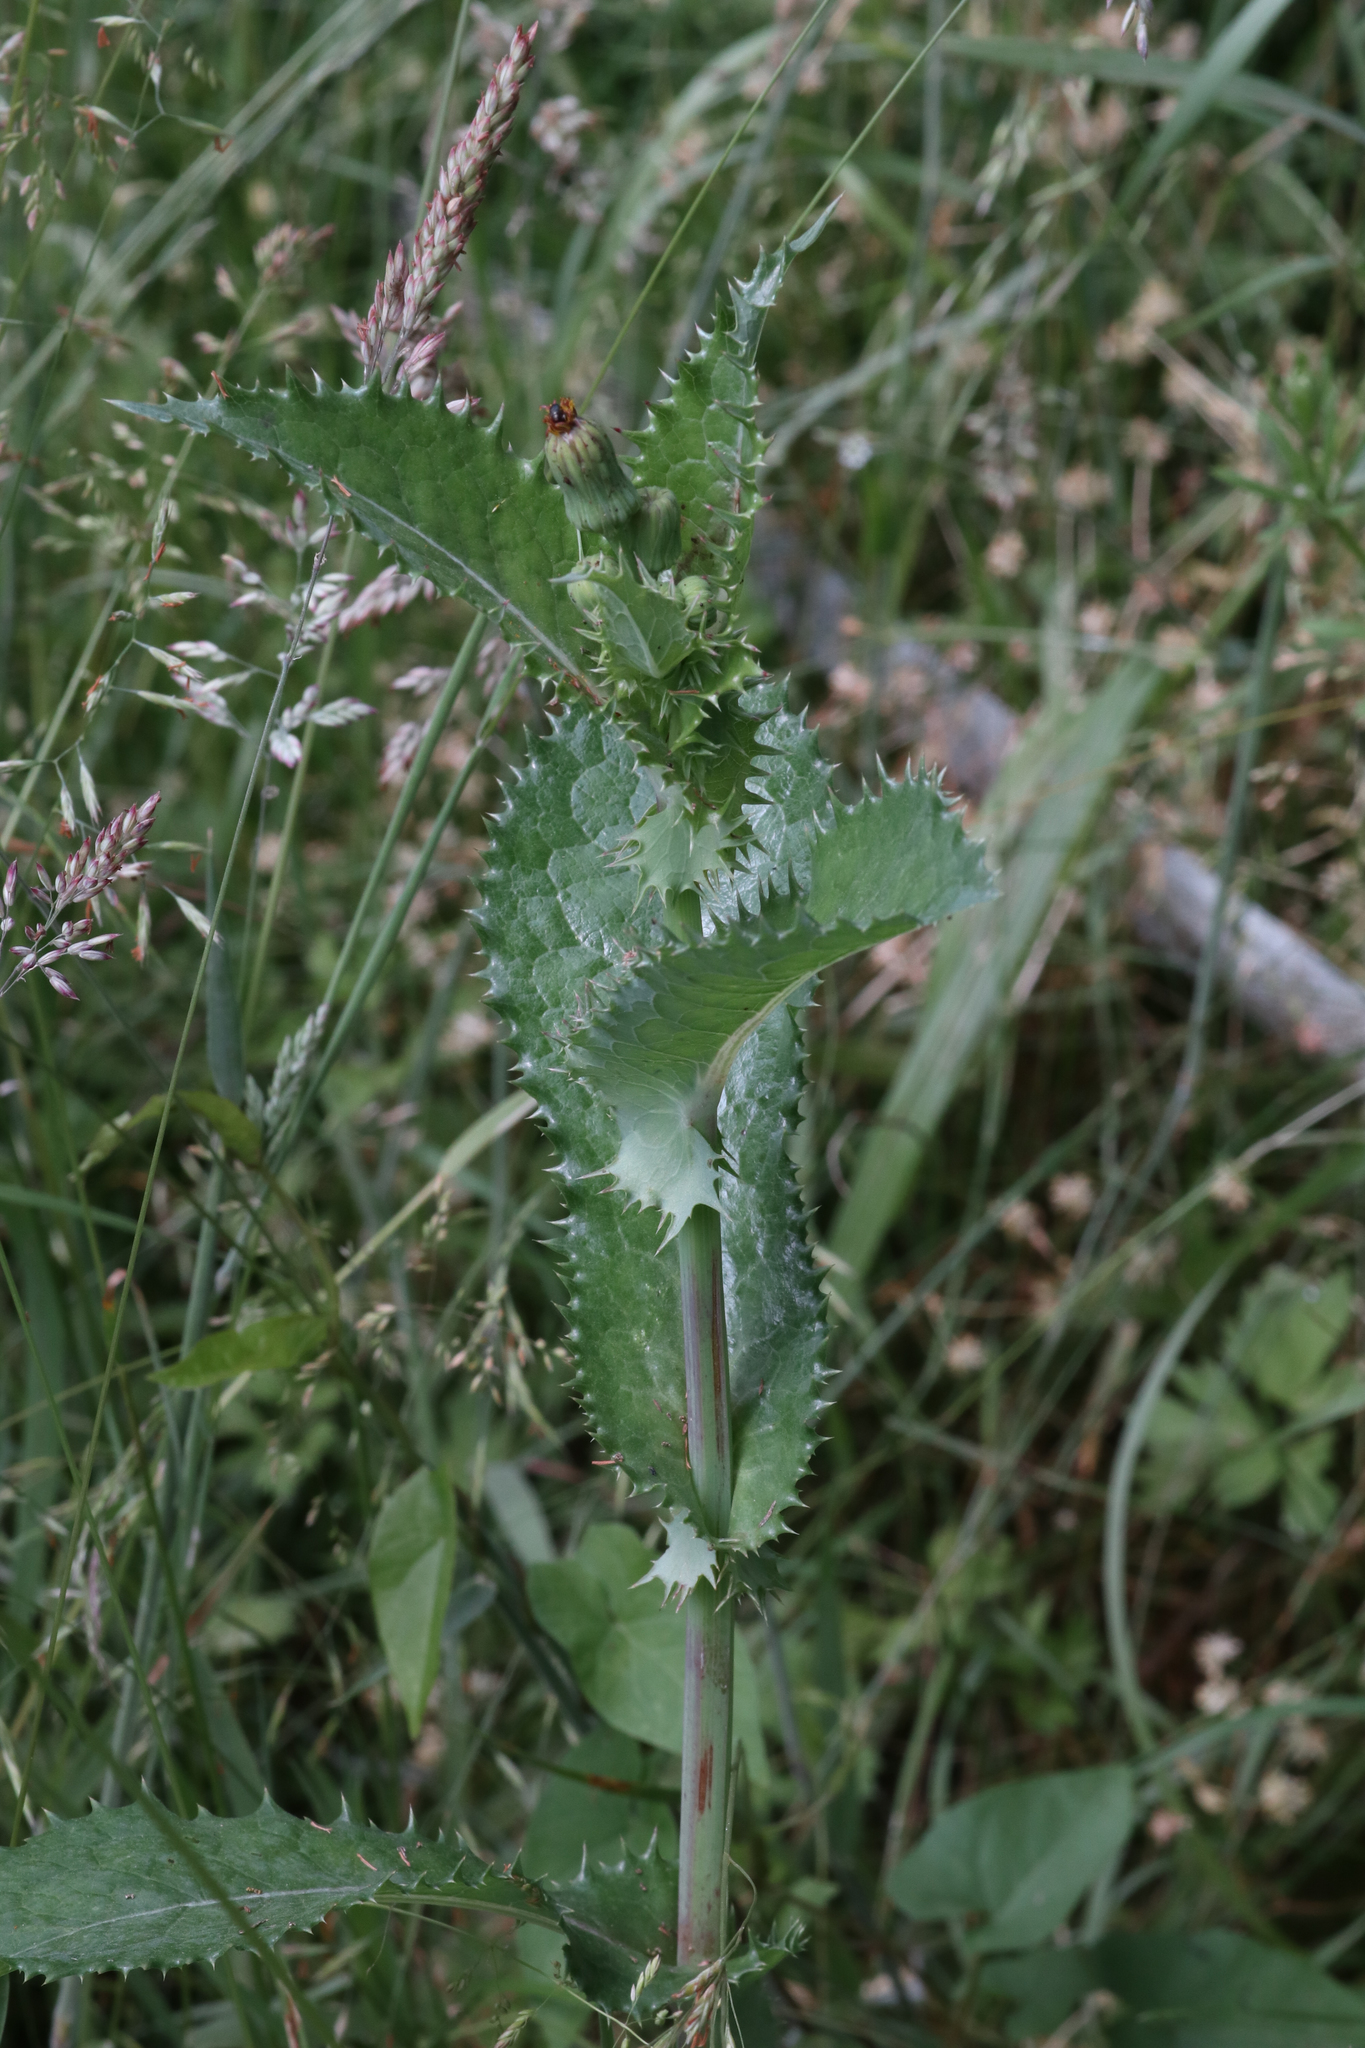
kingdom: Plantae
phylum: Tracheophyta
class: Magnoliopsida
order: Asterales
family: Asteraceae
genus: Sonchus
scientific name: Sonchus asper
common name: Prickly sow-thistle
